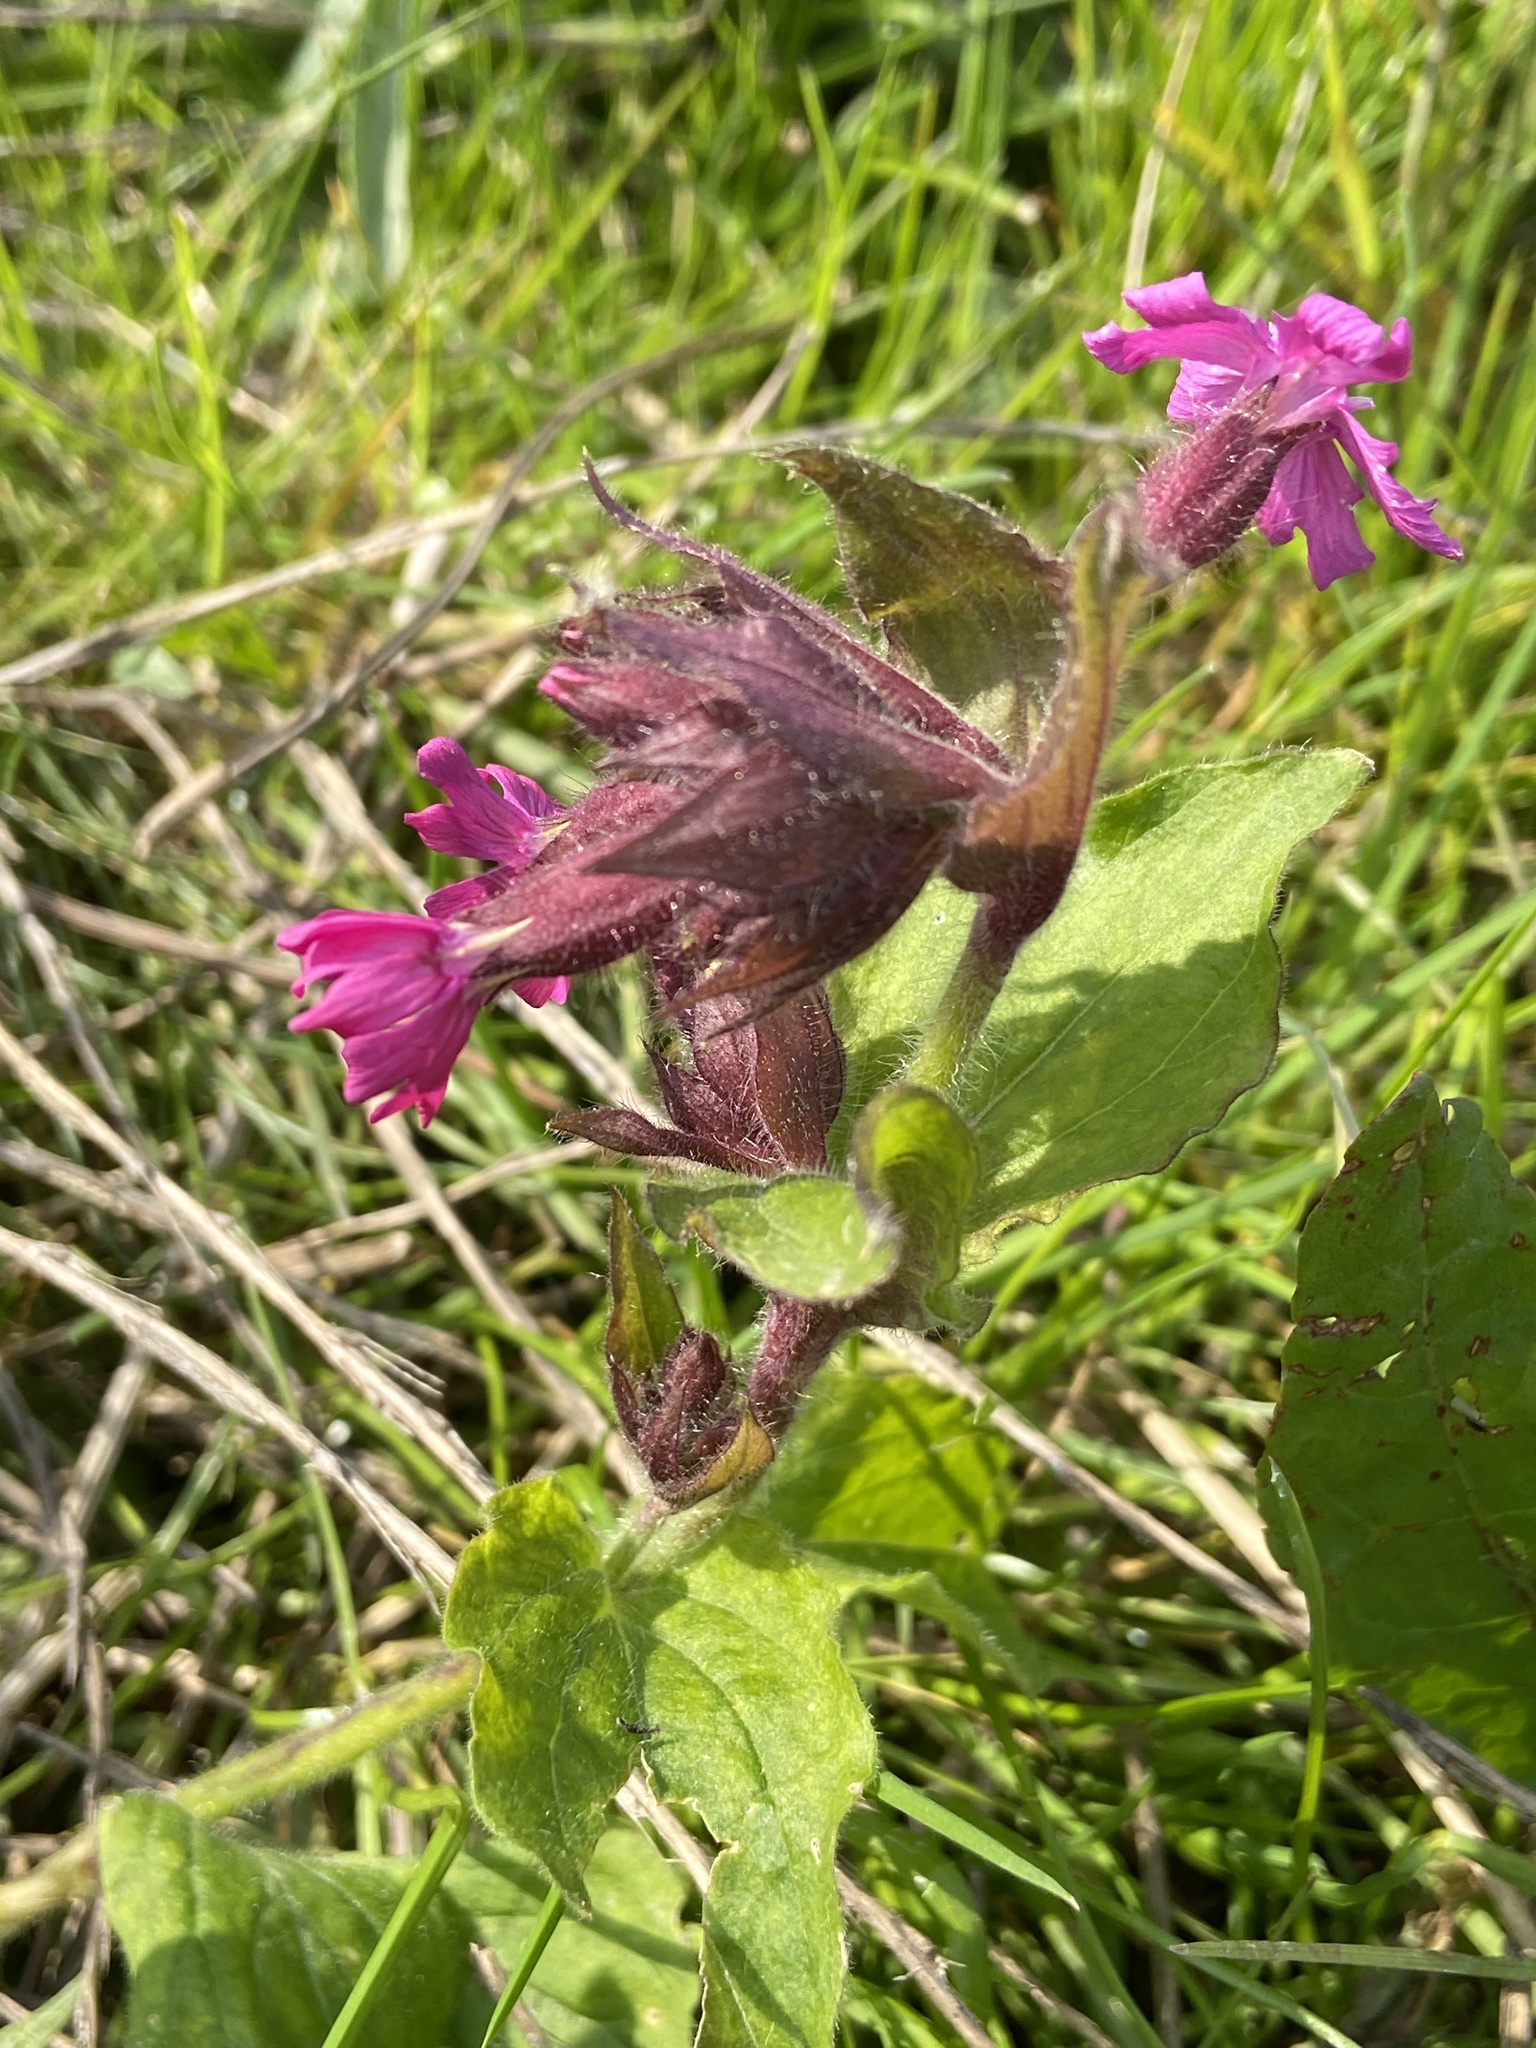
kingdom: Plantae
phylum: Tracheophyta
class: Magnoliopsida
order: Caryophyllales
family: Caryophyllaceae
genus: Silene
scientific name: Silene dioica
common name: Red campion
